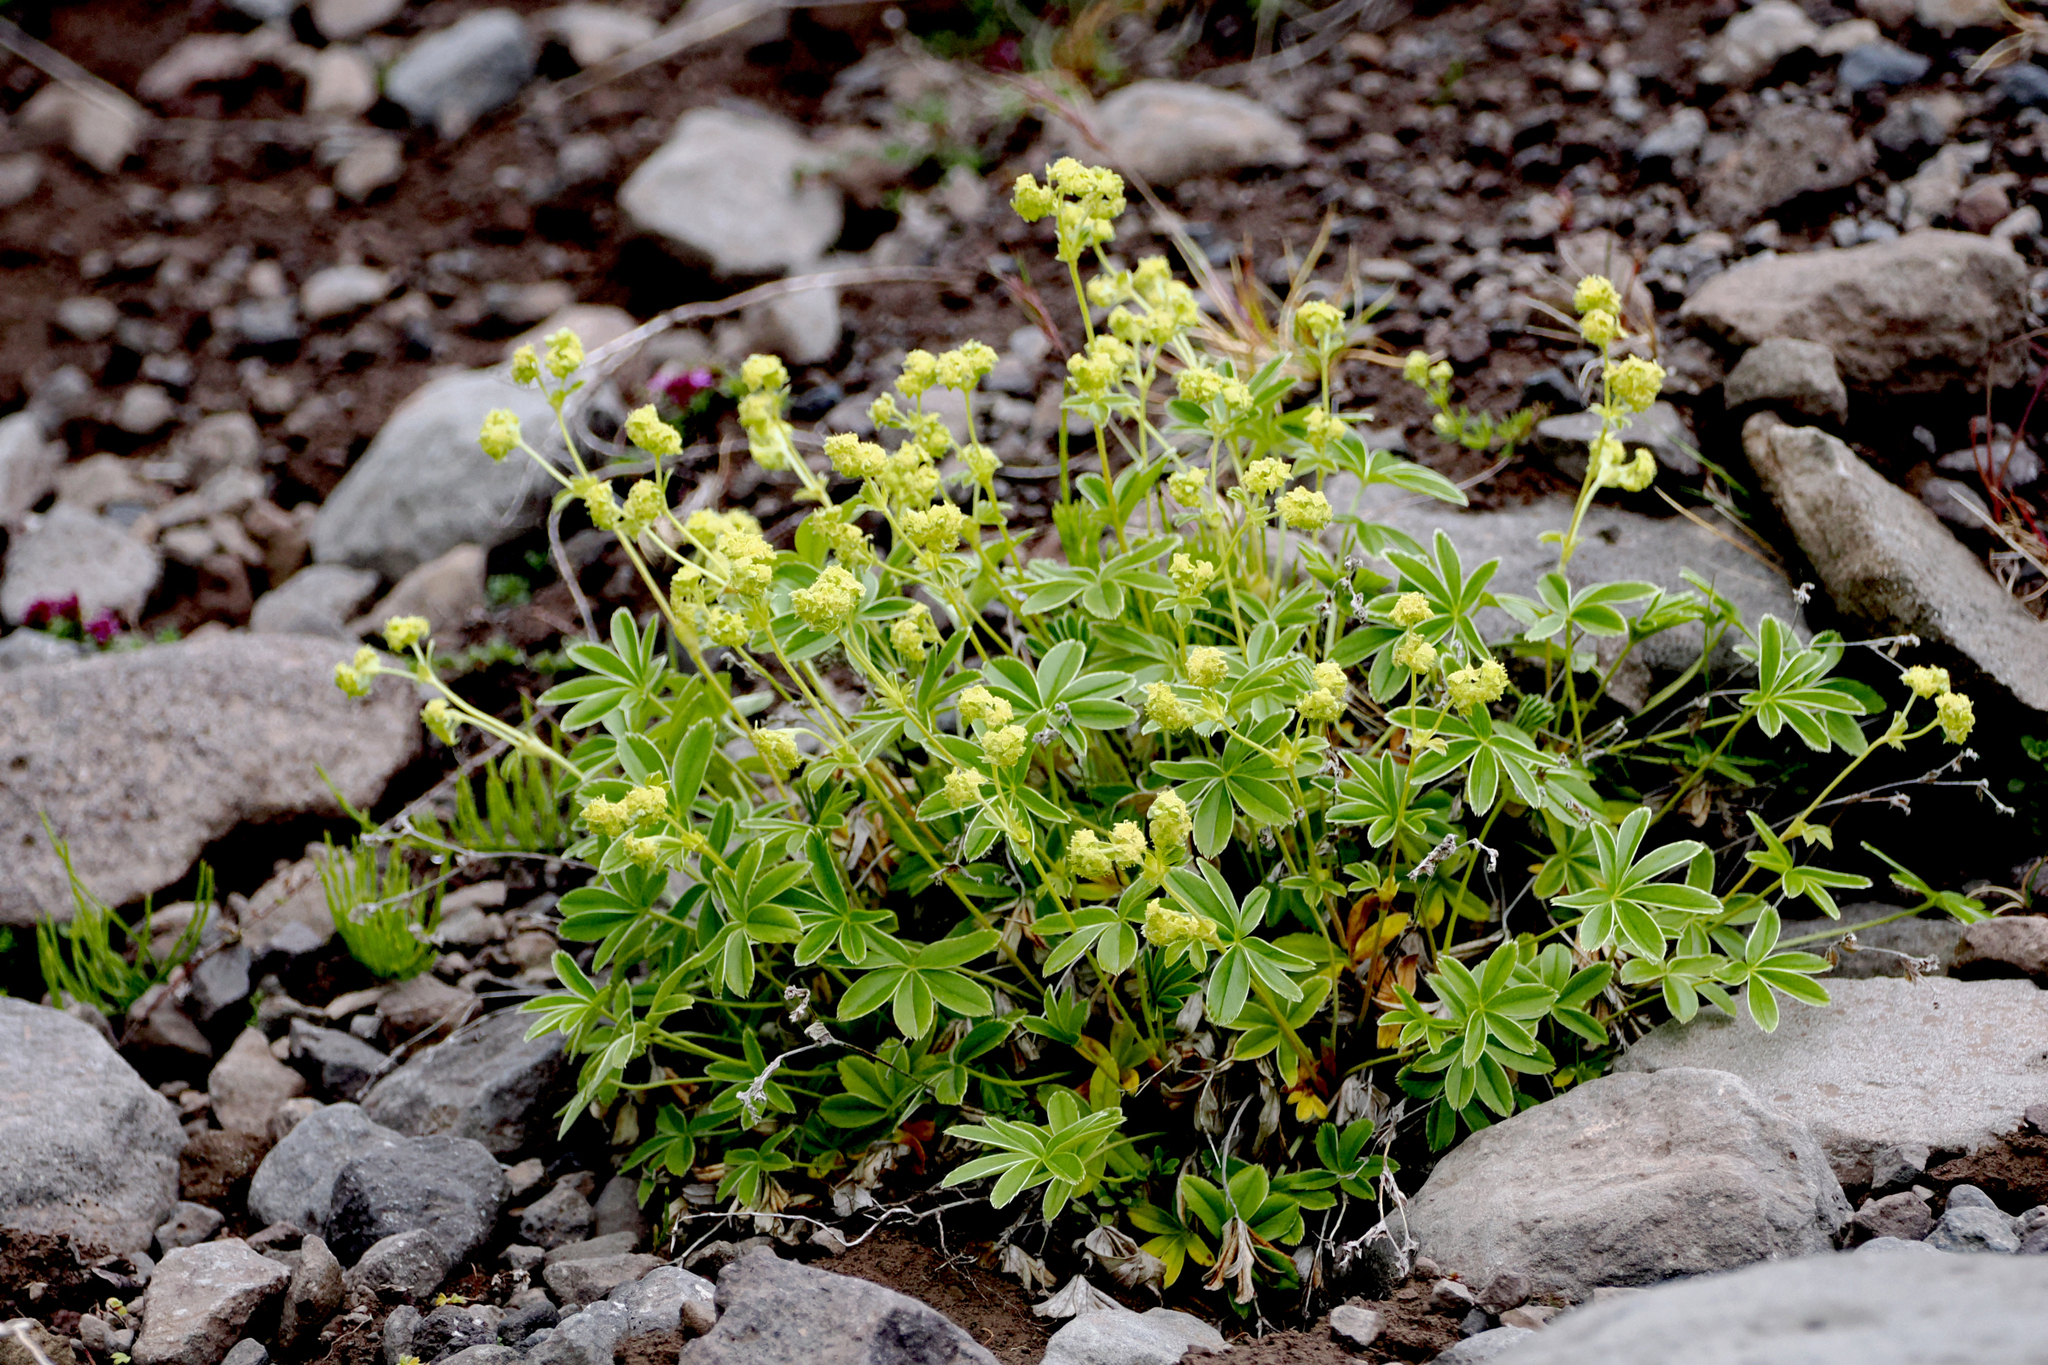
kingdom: Plantae
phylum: Tracheophyta
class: Magnoliopsida
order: Rosales
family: Rosaceae
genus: Alchemilla
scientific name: Alchemilla alpina
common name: Alpine lady's-mantle
